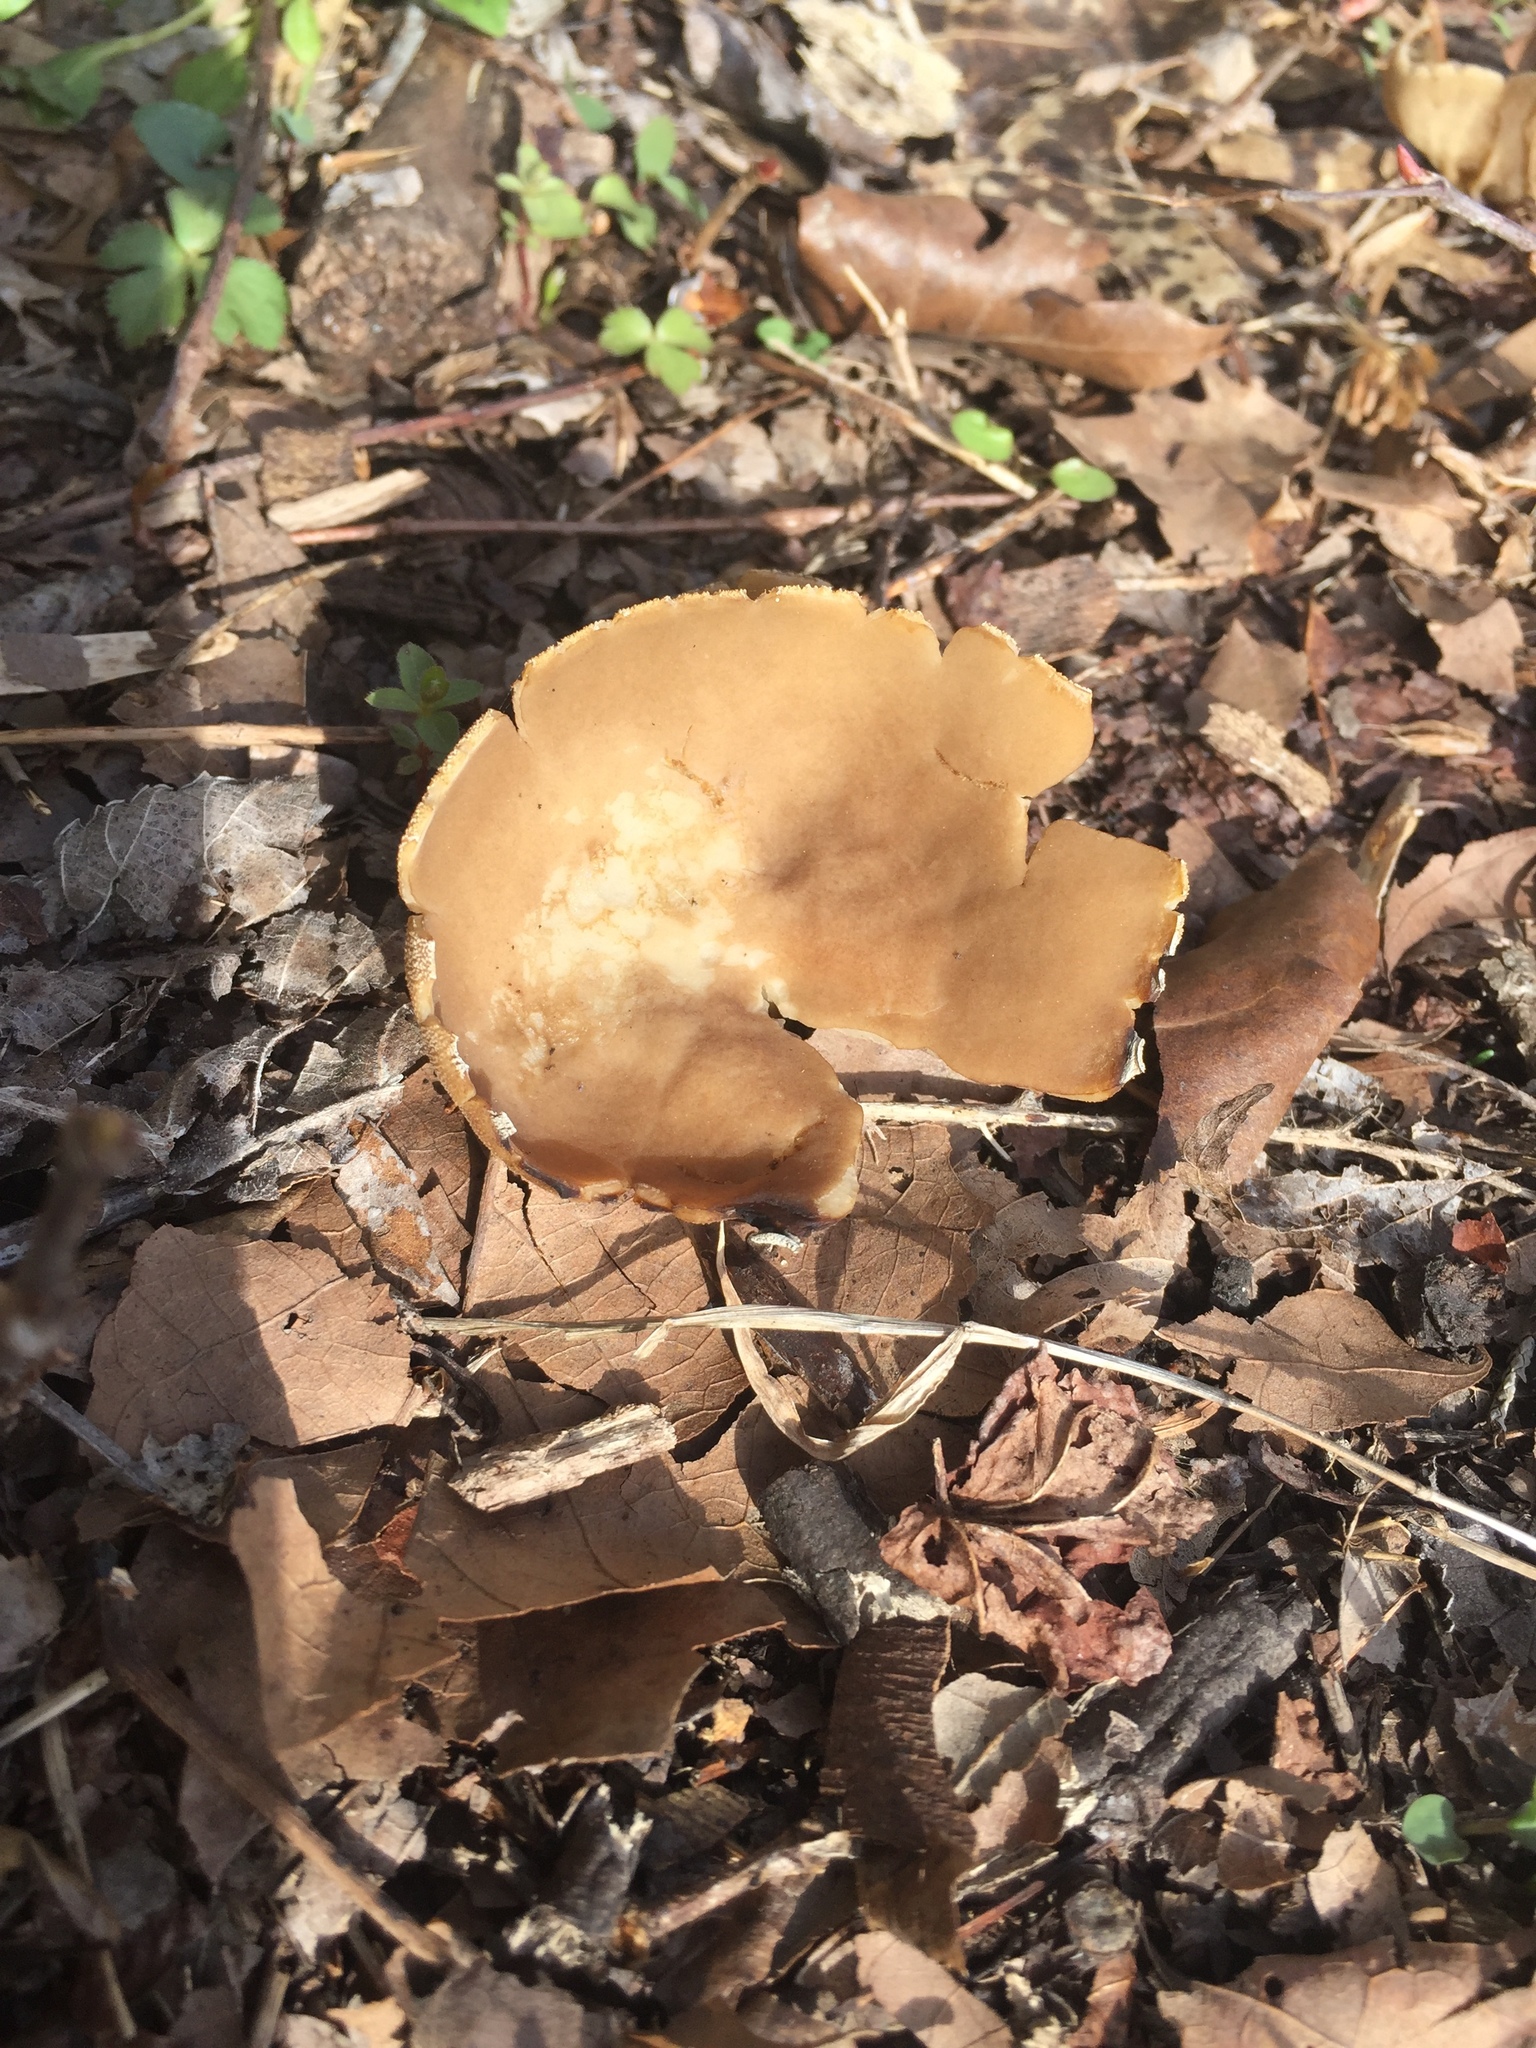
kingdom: Fungi
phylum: Ascomycota
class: Pezizomycetes
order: Pezizales
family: Helvellaceae
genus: Helvella
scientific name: Helvella acetabulum
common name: Vinegar cup
